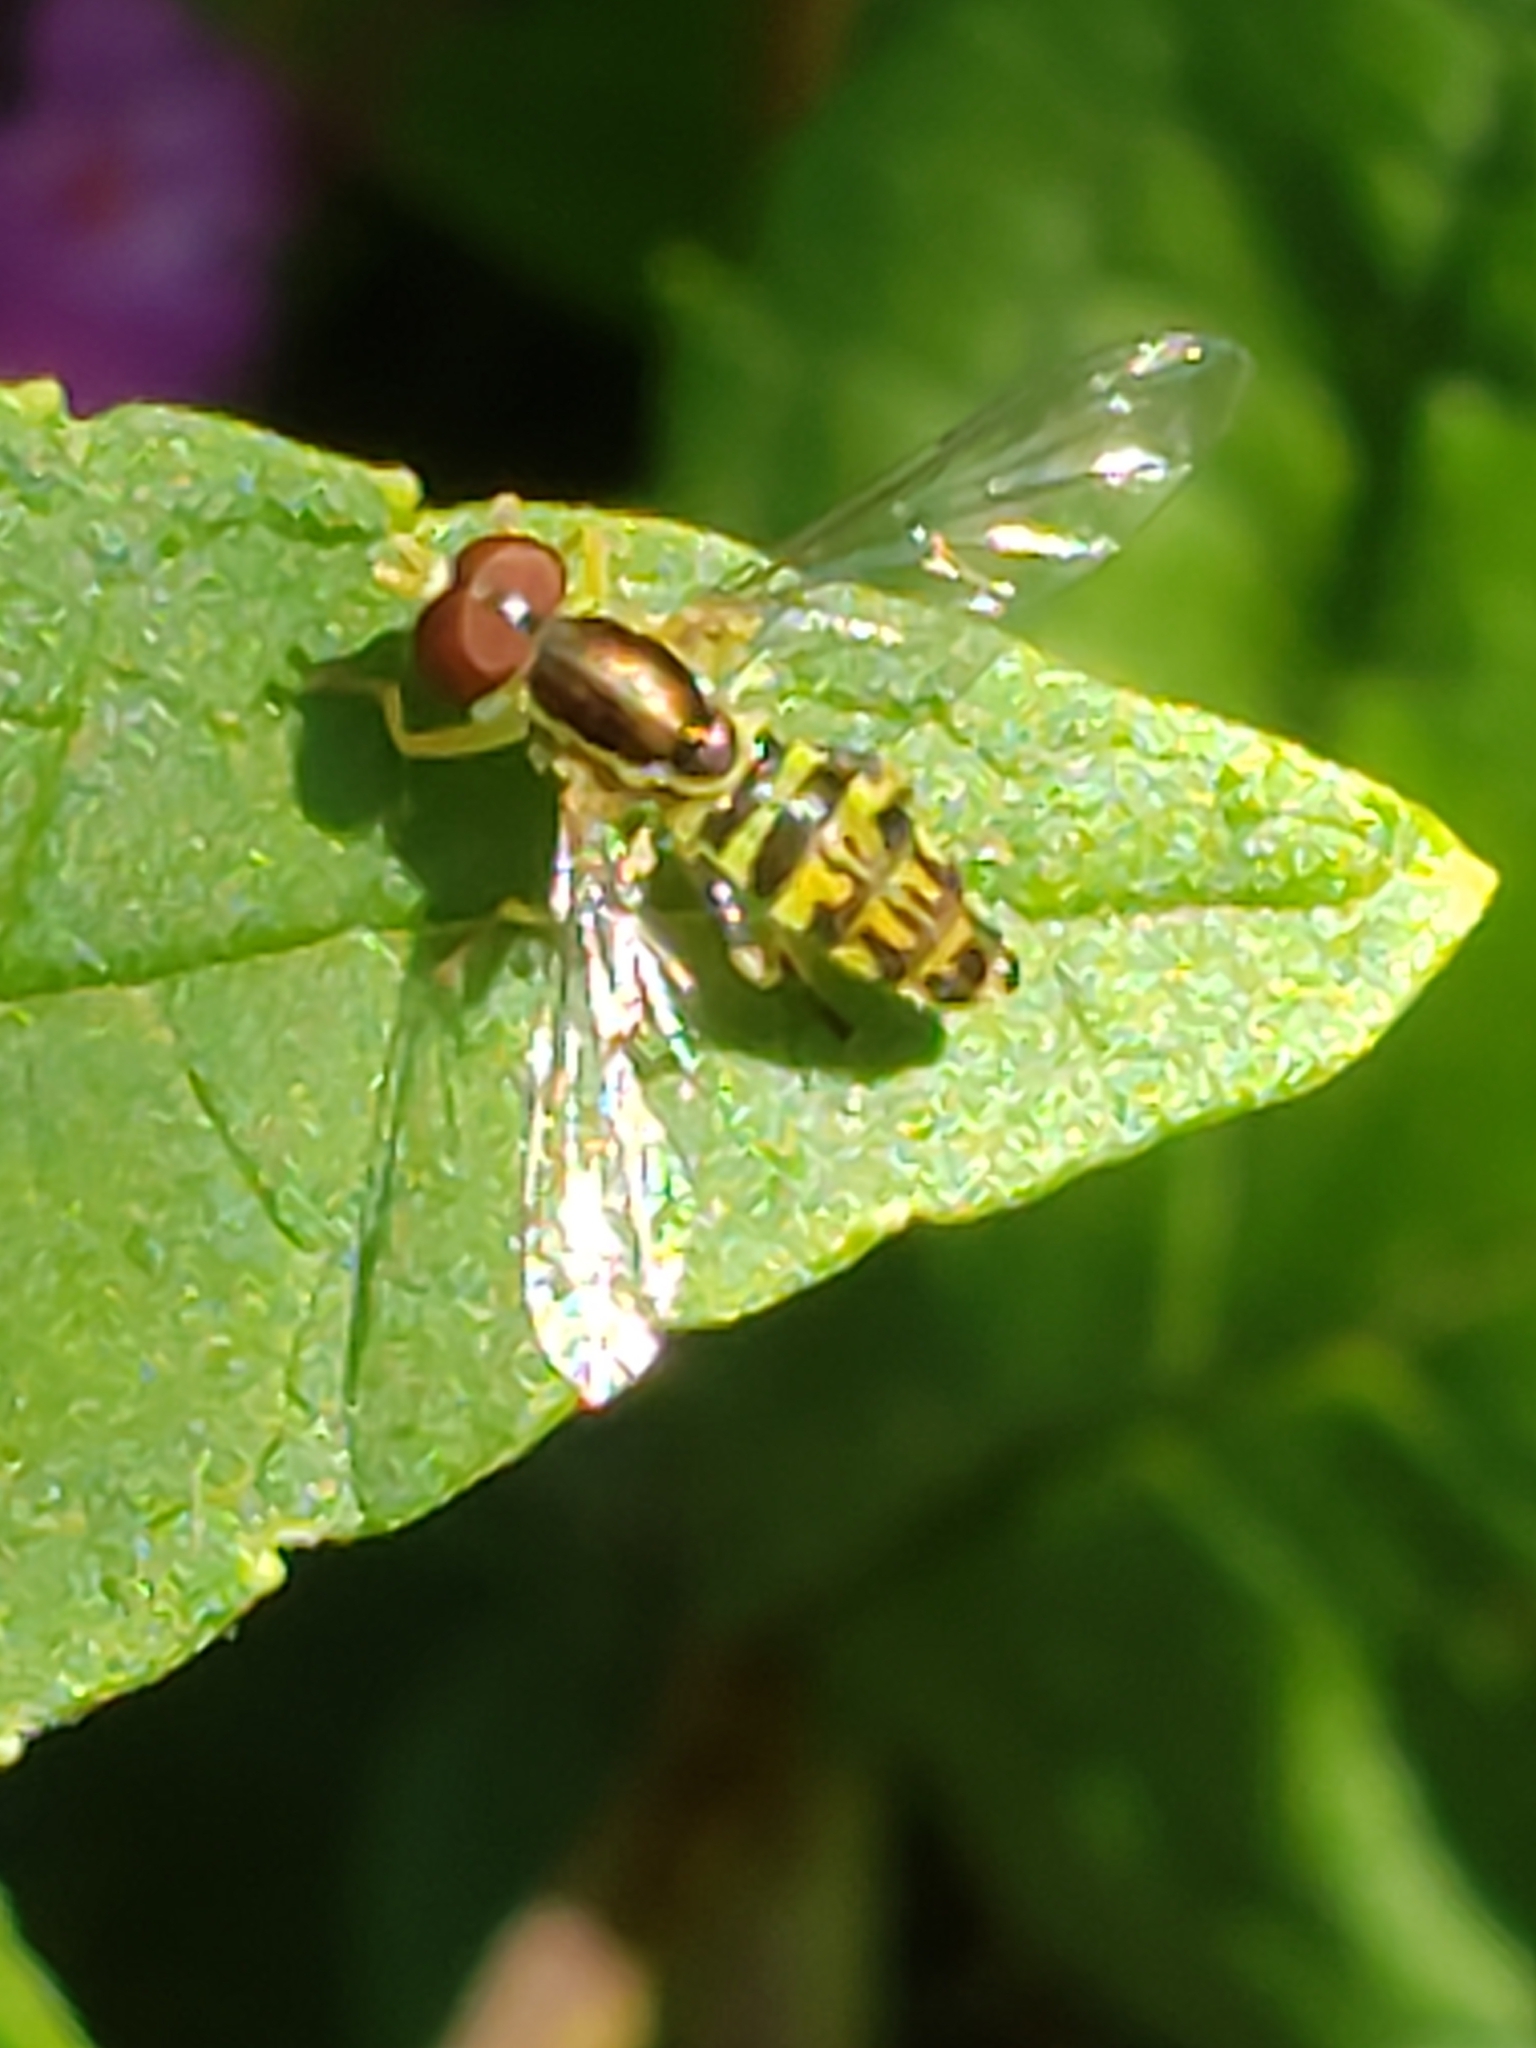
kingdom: Animalia
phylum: Arthropoda
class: Insecta
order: Diptera
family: Syrphidae
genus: Toxomerus
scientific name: Toxomerus geminatus
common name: Eastern calligrapher
